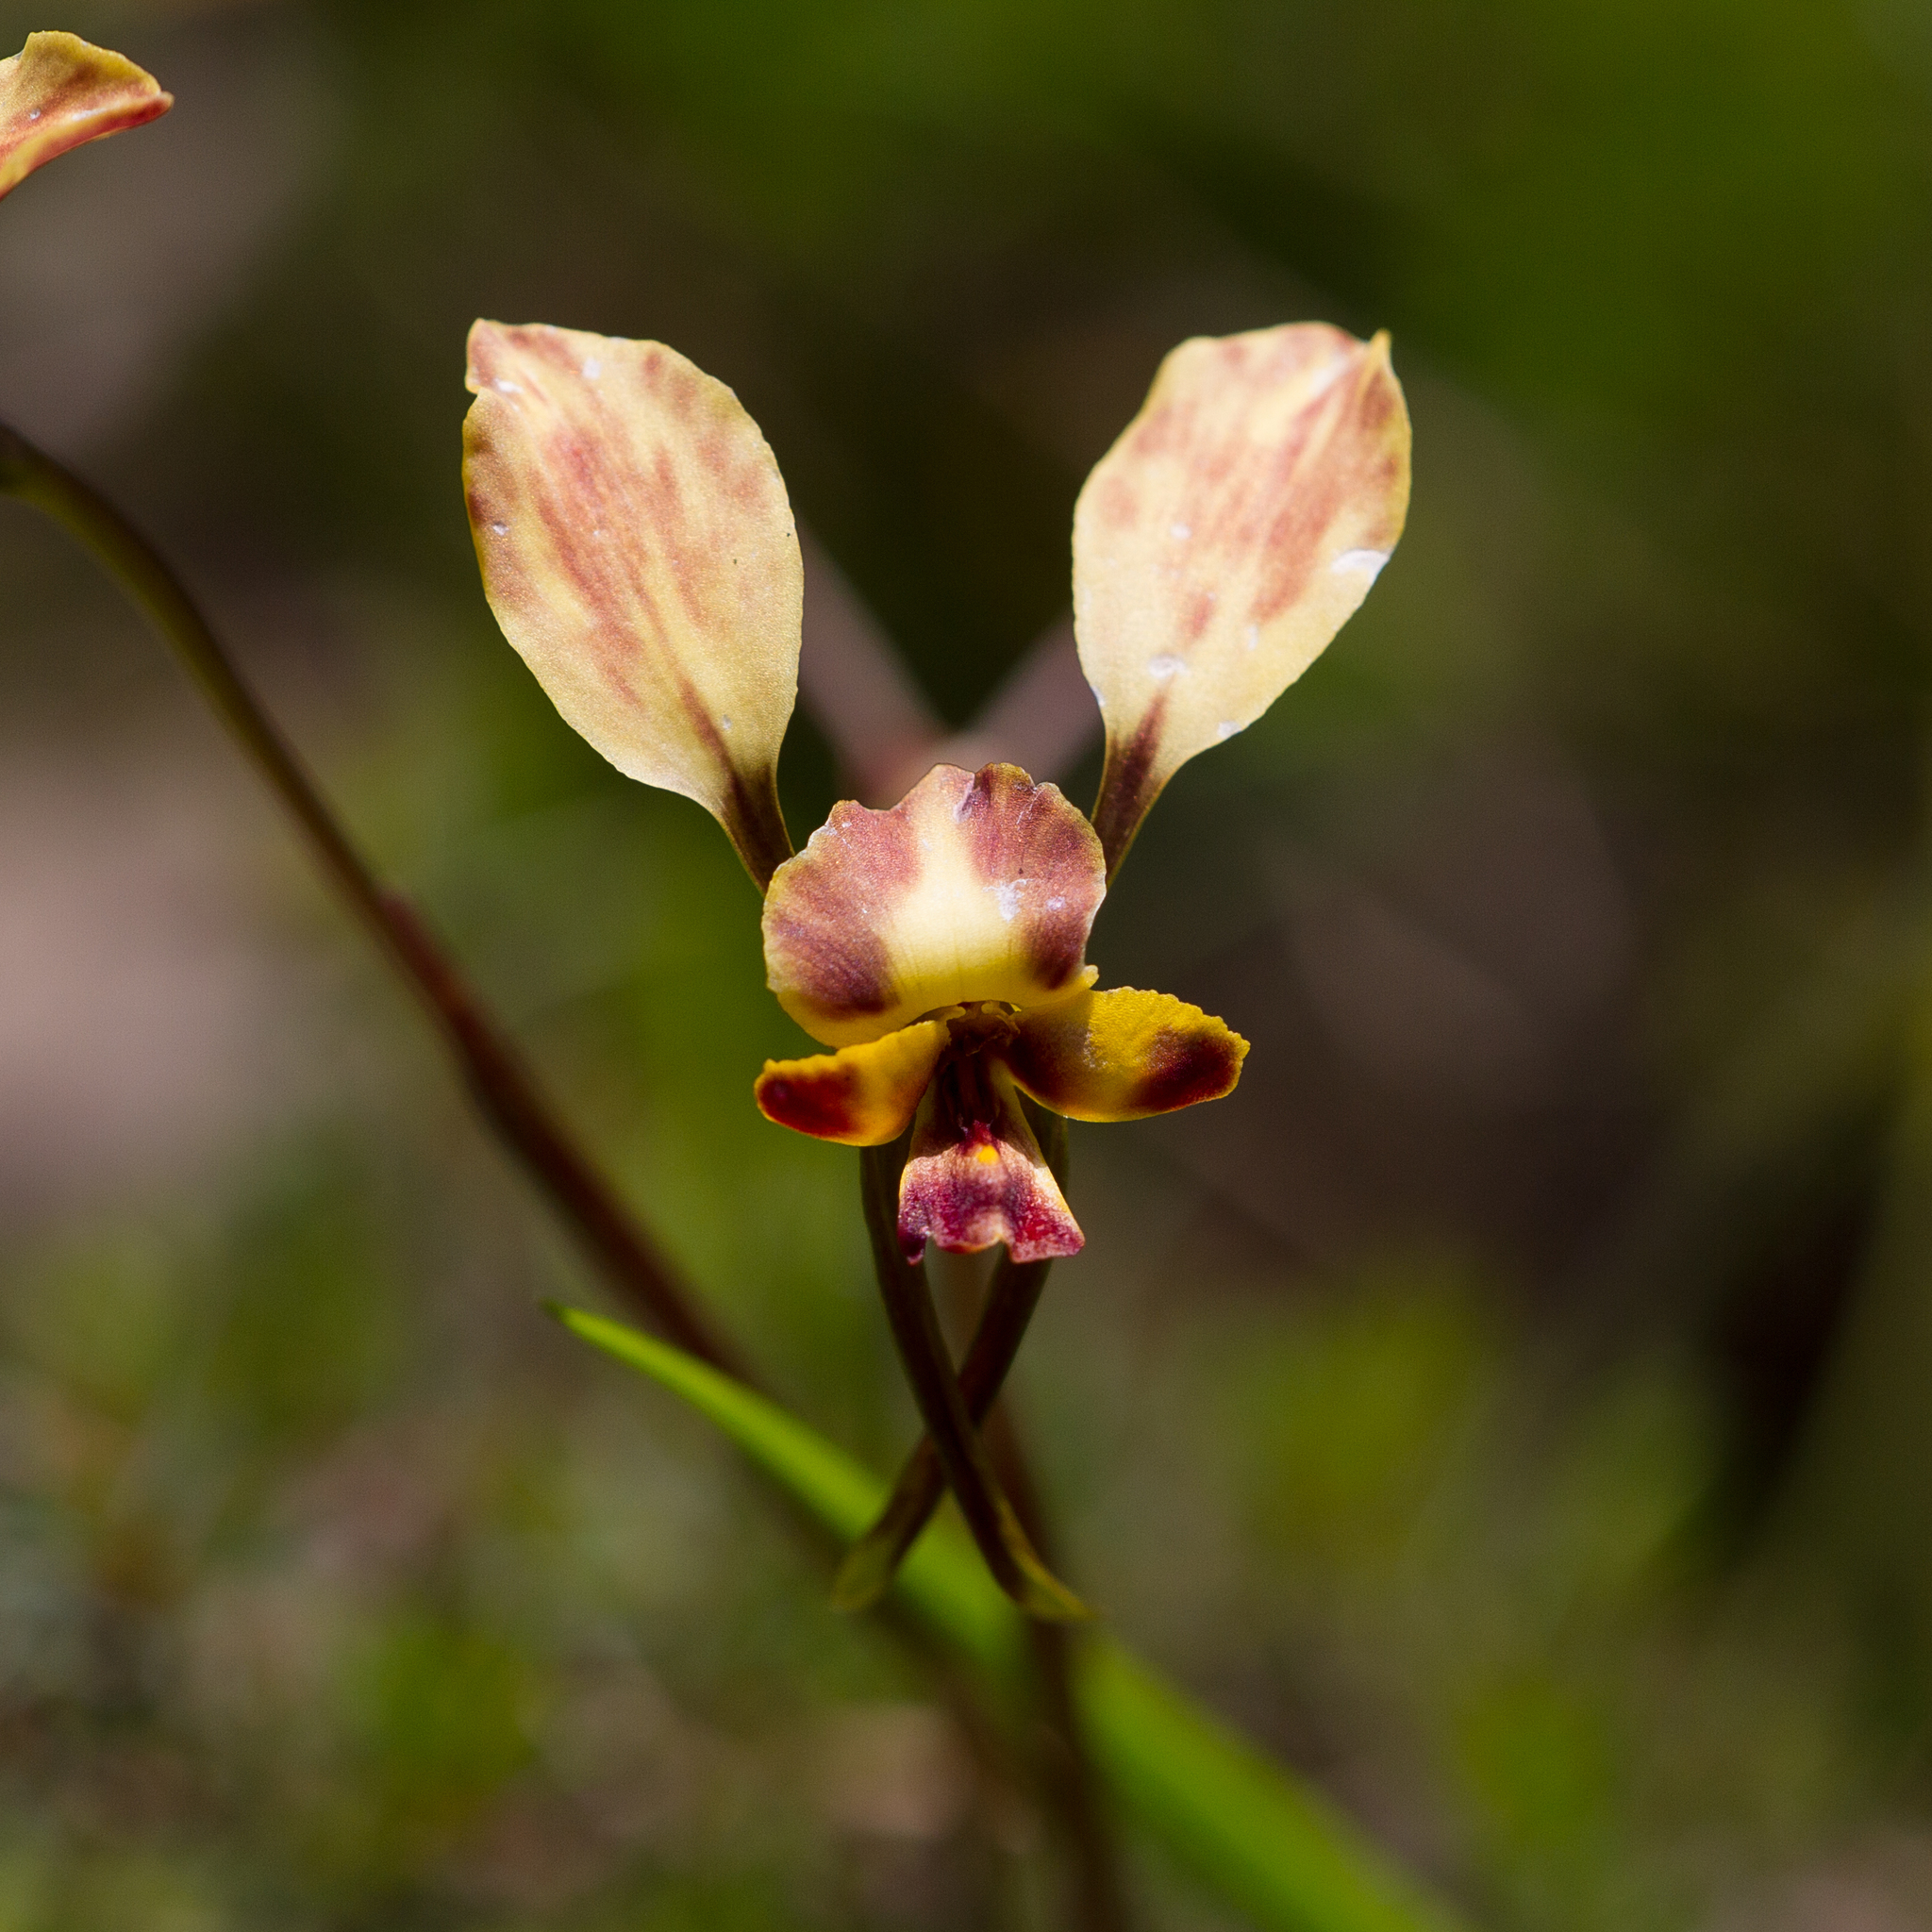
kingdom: Plantae
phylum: Tracheophyta
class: Liliopsida
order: Asparagales
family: Orchidaceae
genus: Diuris
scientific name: Diuris orientis
